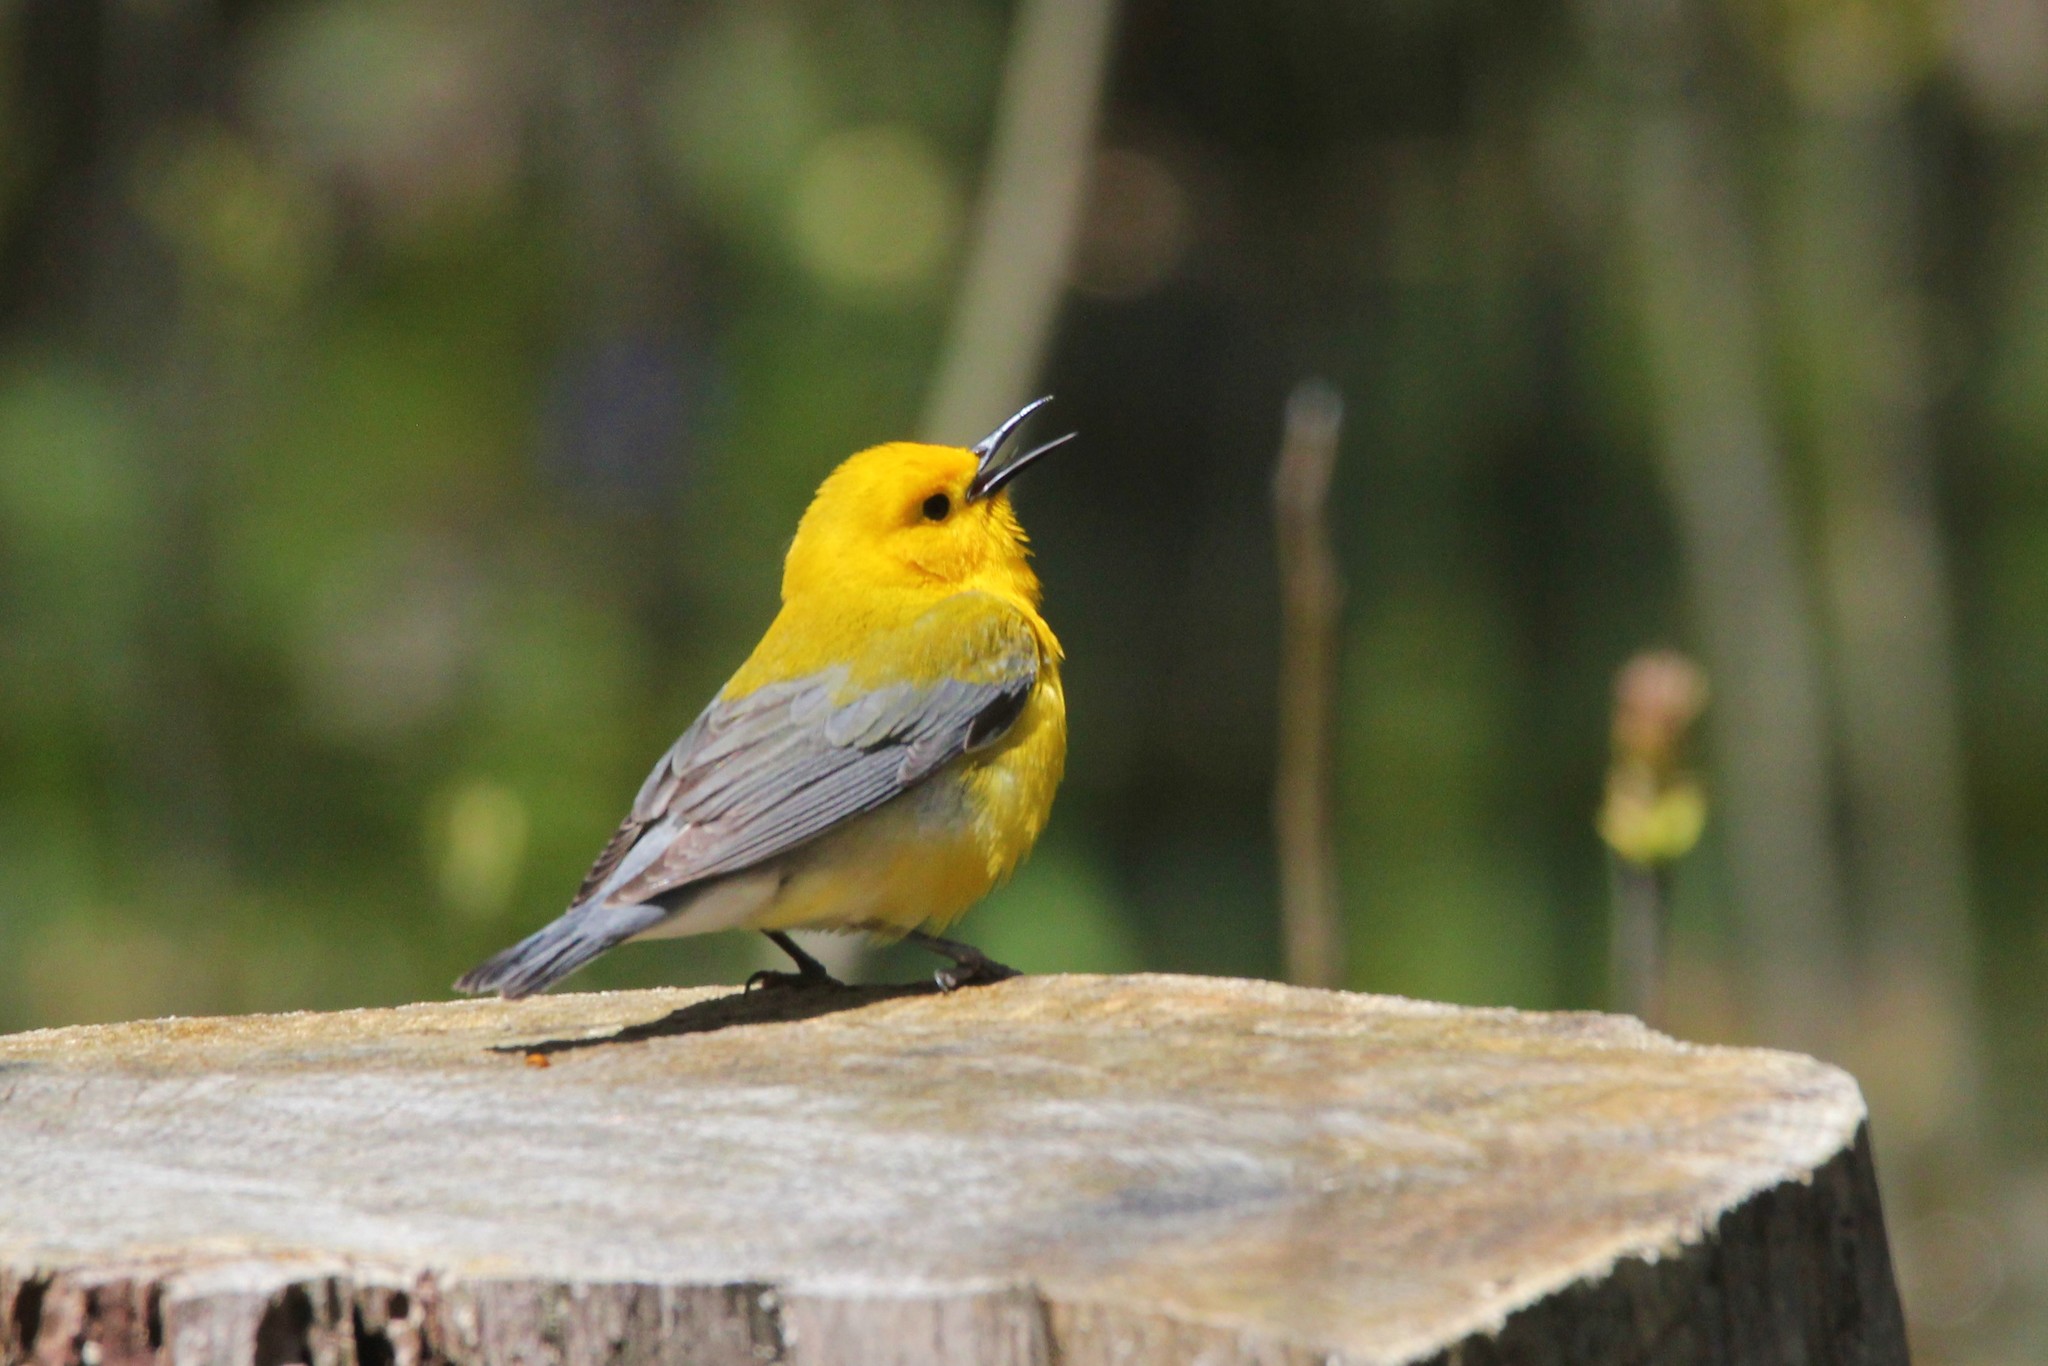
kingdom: Animalia
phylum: Chordata
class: Aves
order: Passeriformes
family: Parulidae
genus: Protonotaria
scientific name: Protonotaria citrea
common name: Prothonotary warbler
